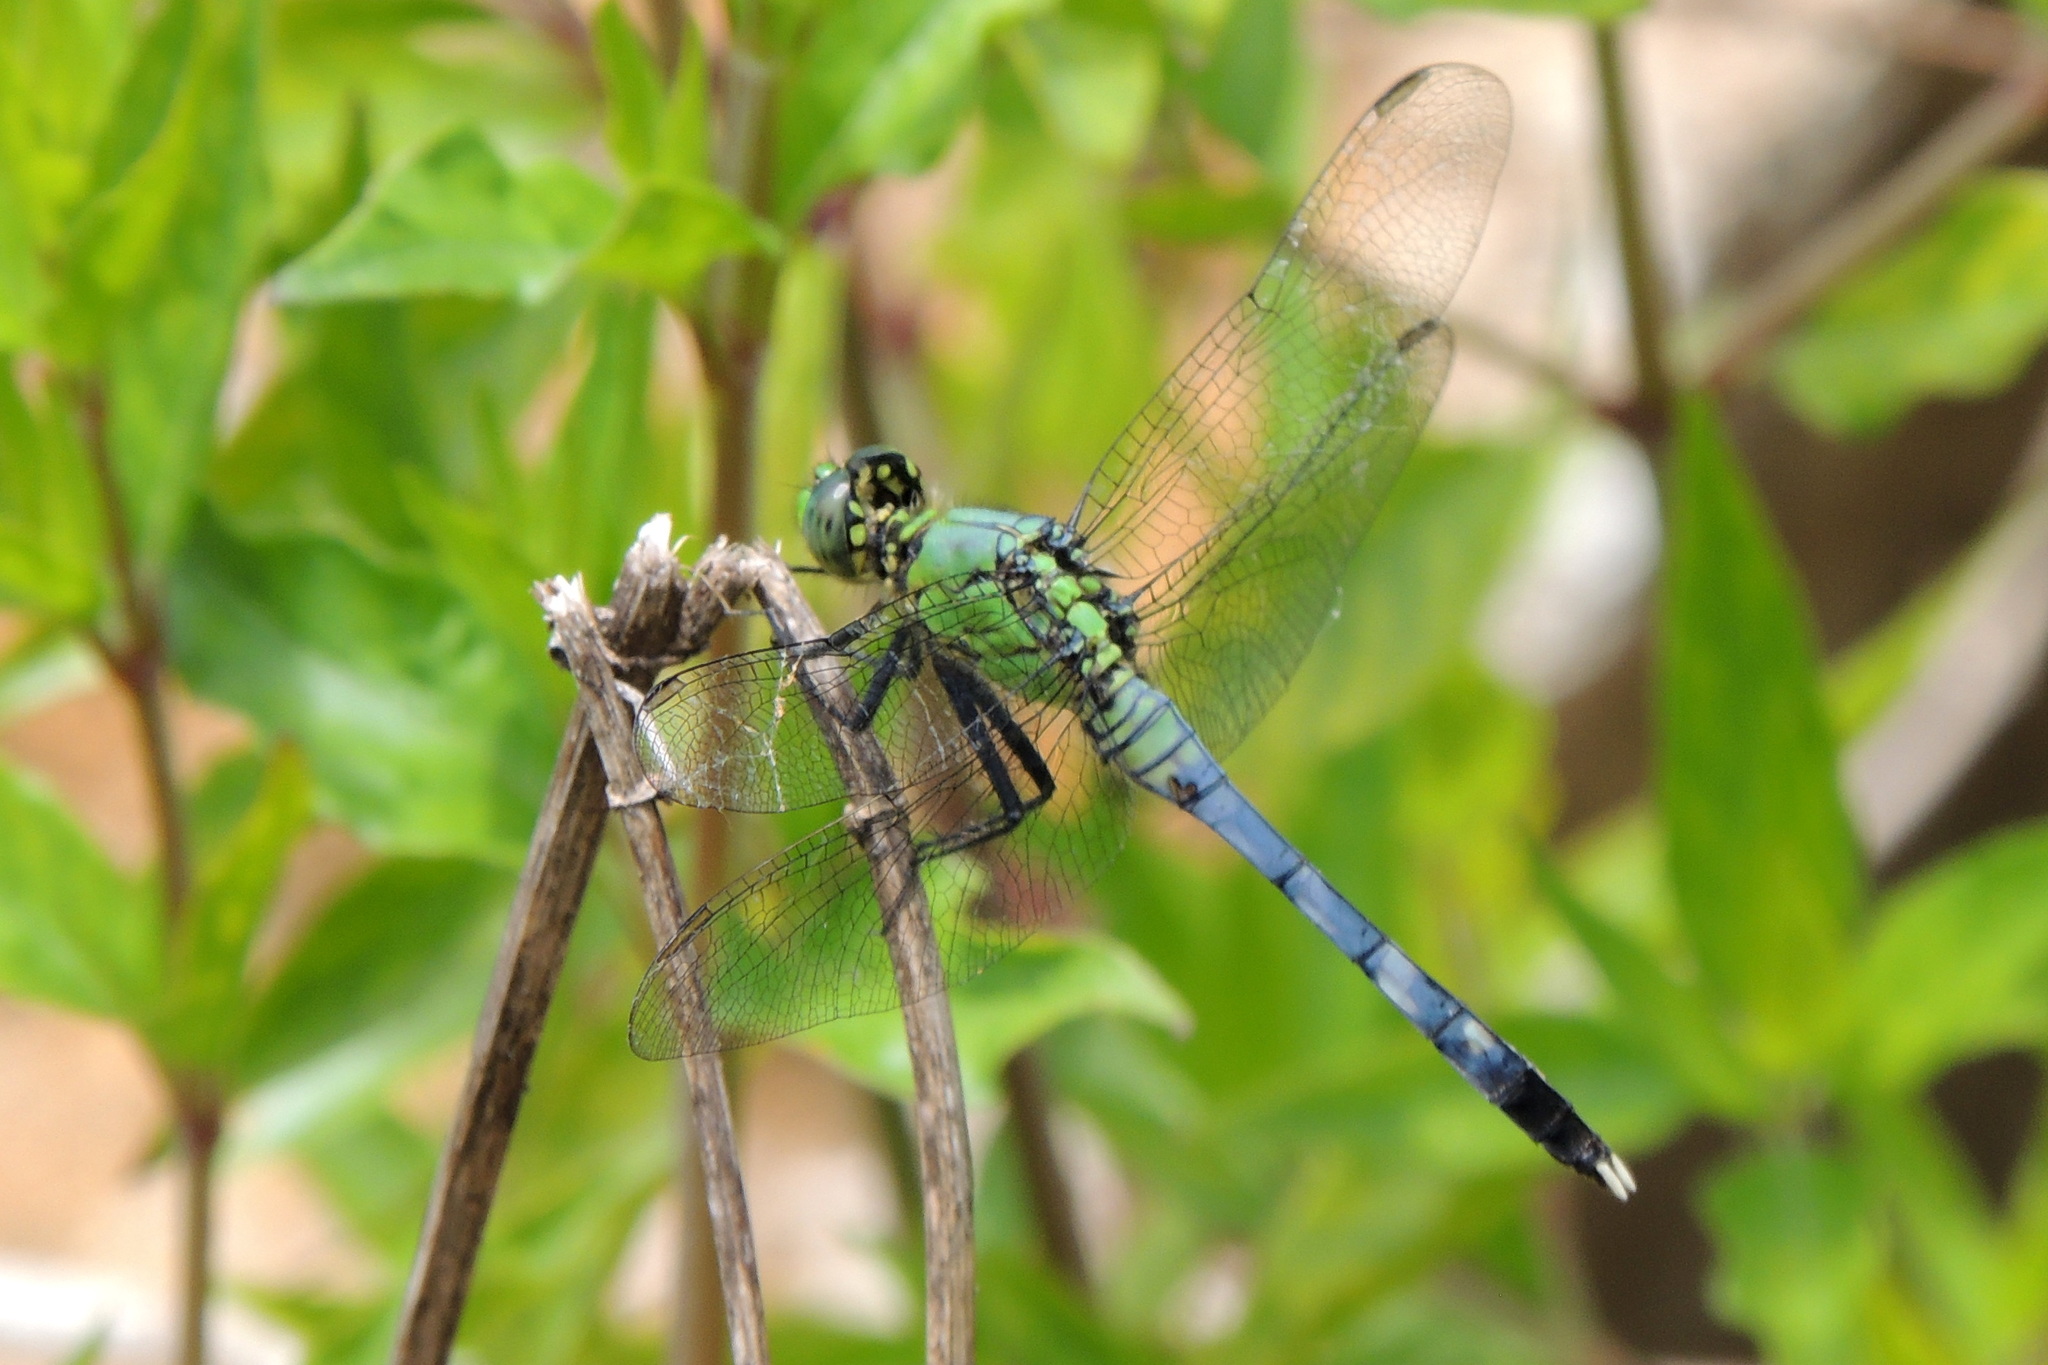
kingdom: Animalia
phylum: Arthropoda
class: Insecta
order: Odonata
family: Libellulidae
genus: Erythemis
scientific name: Erythemis simplicicollis
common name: Eastern pondhawk
